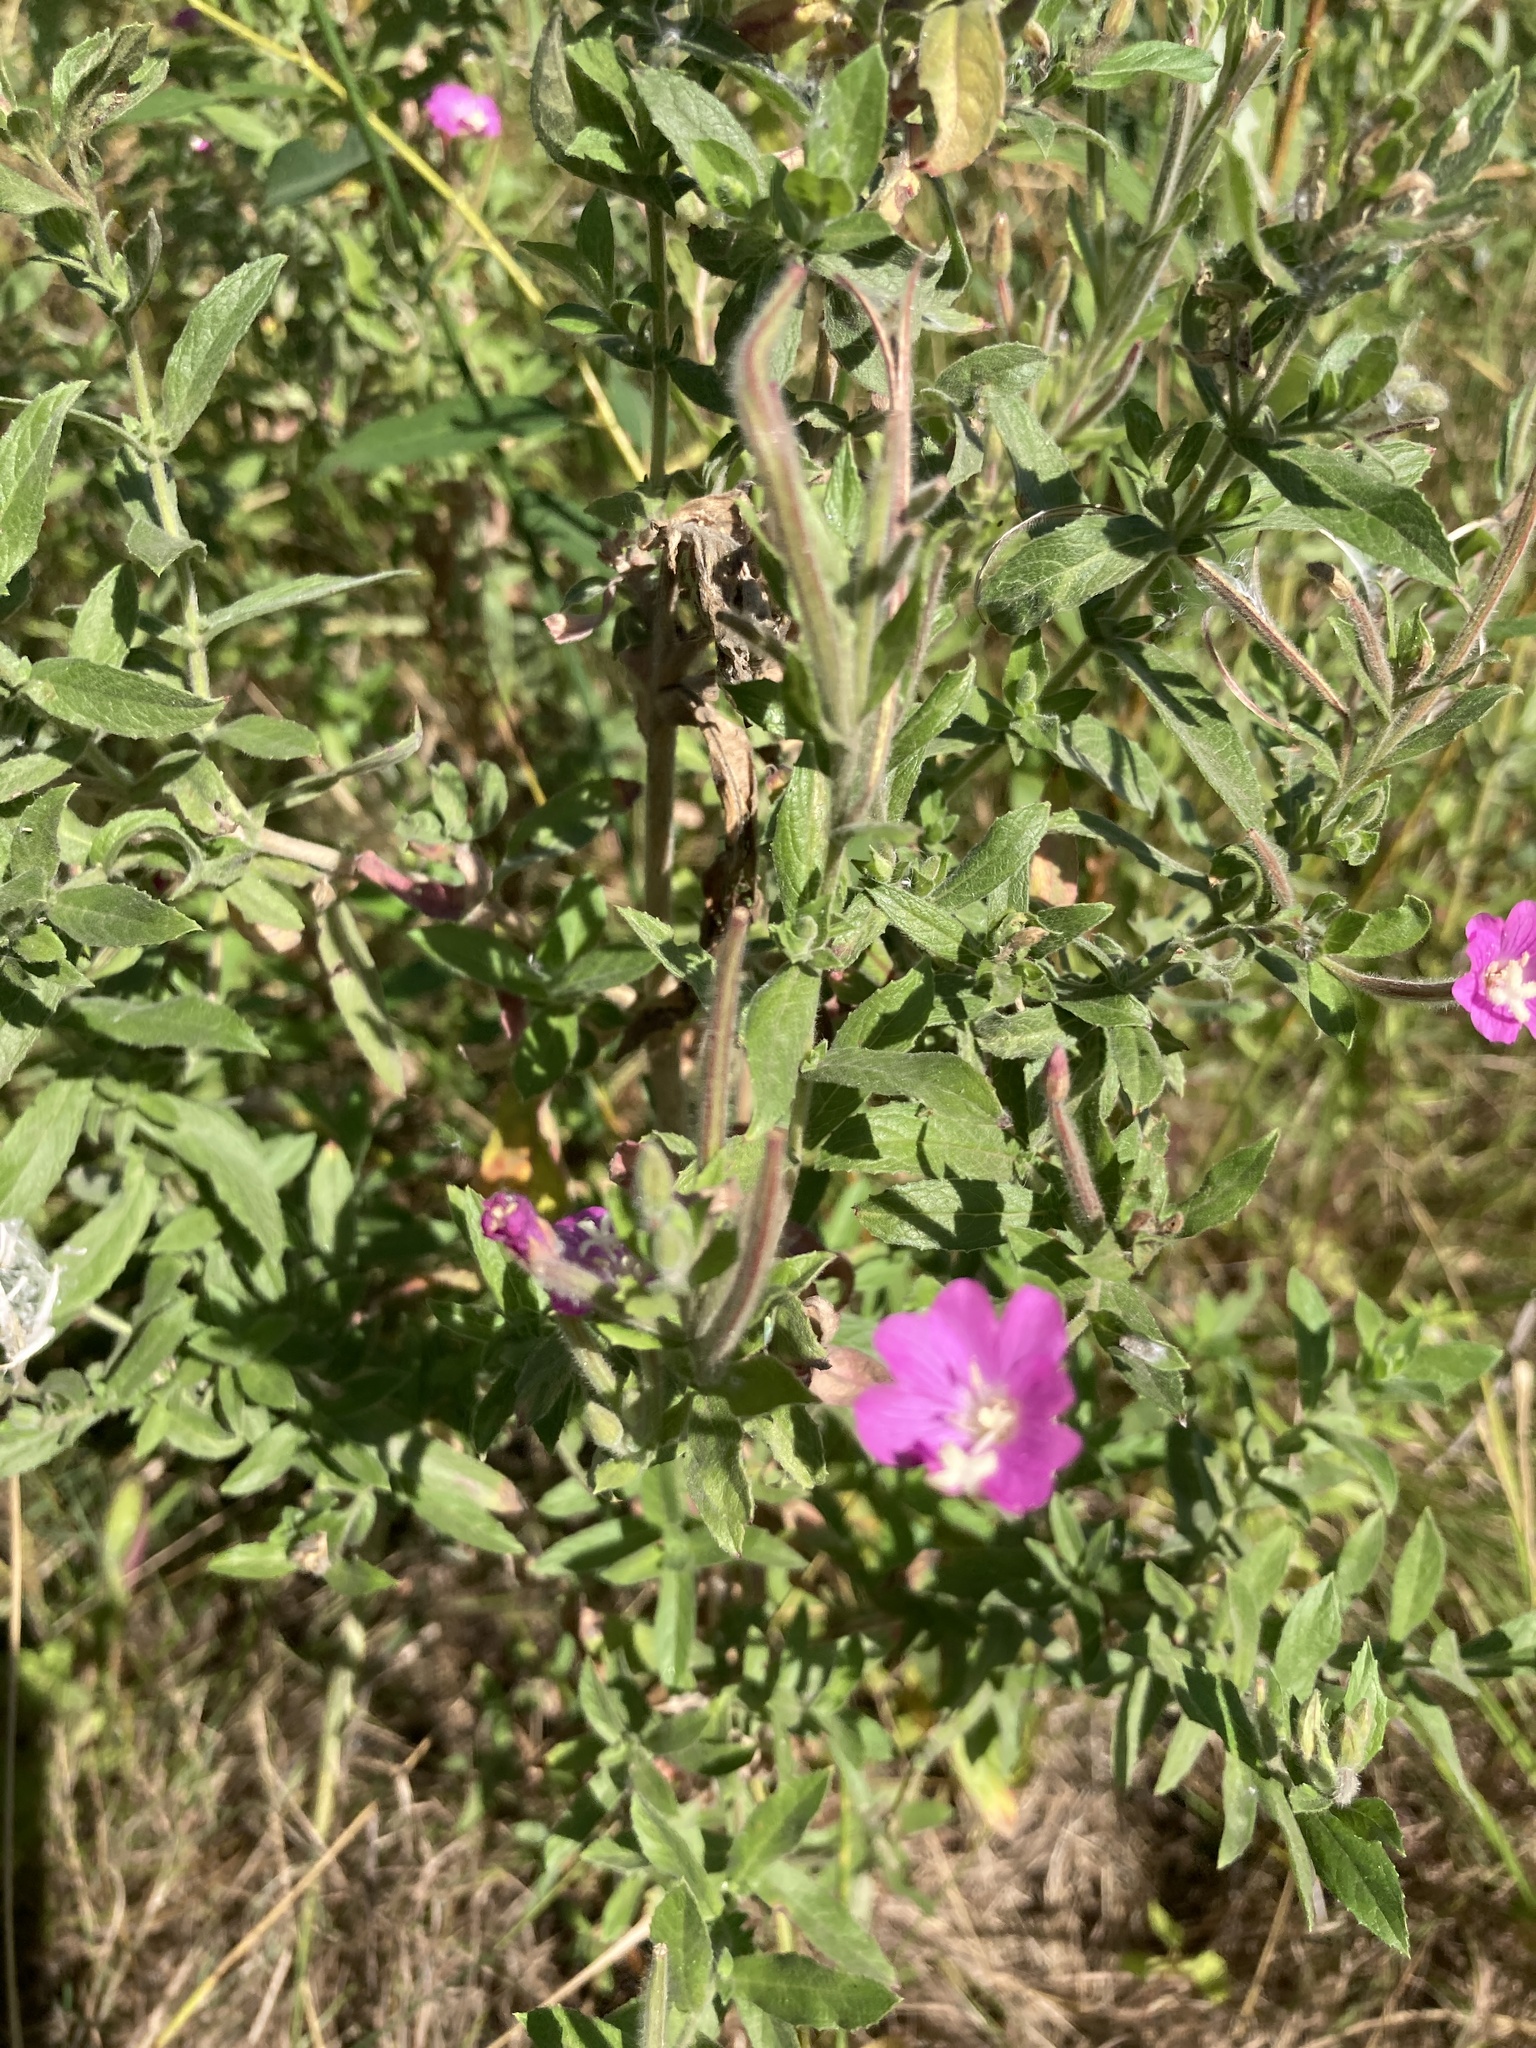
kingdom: Plantae
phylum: Tracheophyta
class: Magnoliopsida
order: Myrtales
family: Onagraceae
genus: Epilobium
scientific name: Epilobium hirsutum
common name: Great willowherb
